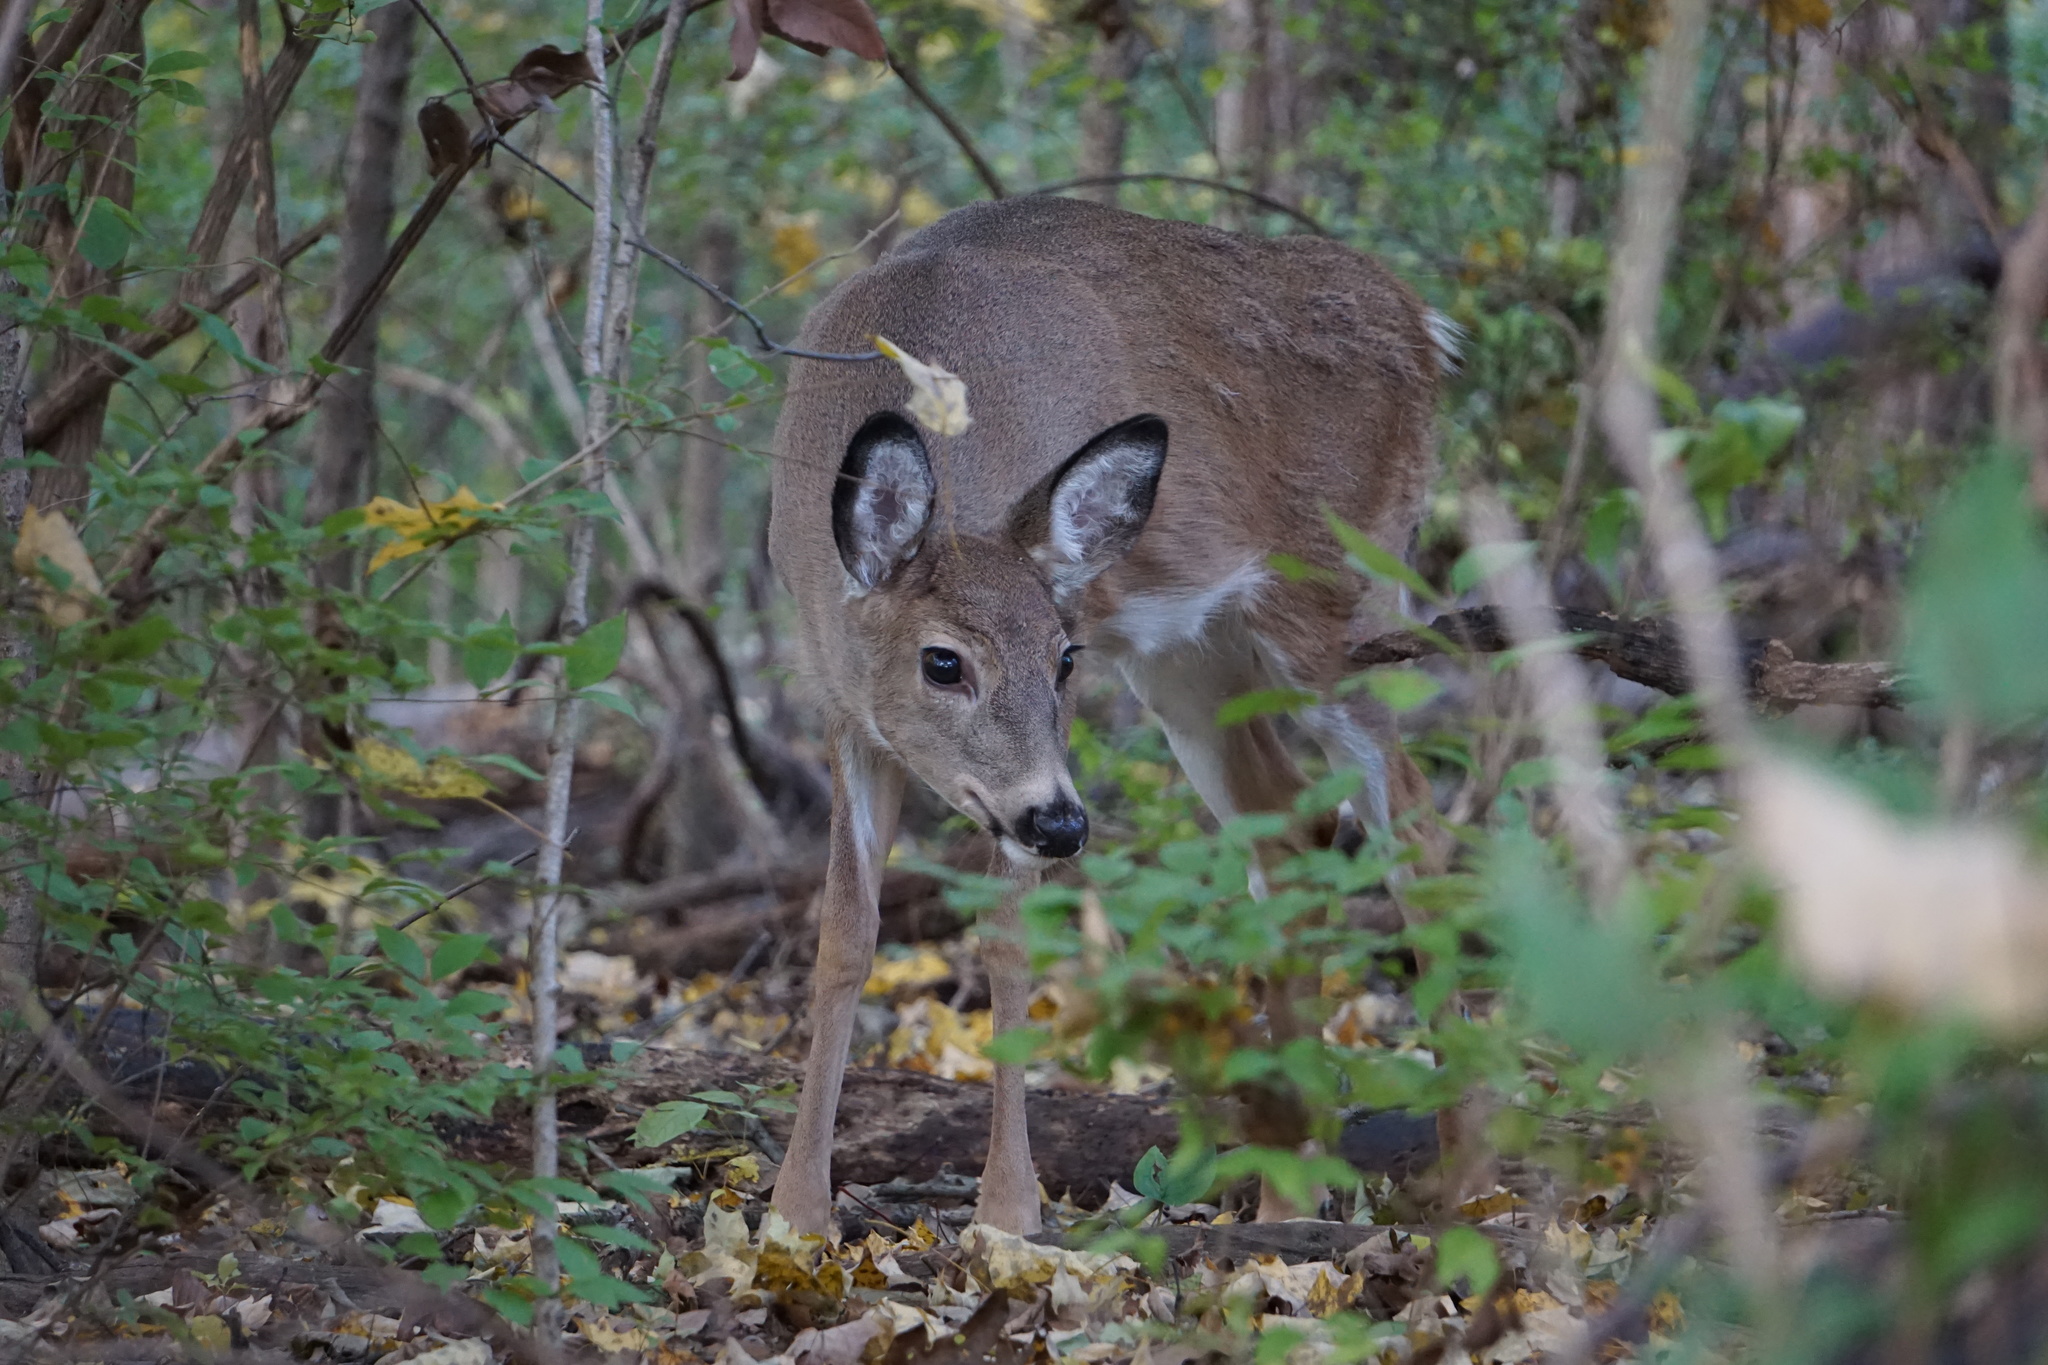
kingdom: Animalia
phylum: Chordata
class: Mammalia
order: Artiodactyla
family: Cervidae
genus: Odocoileus
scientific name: Odocoileus virginianus
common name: White-tailed deer
